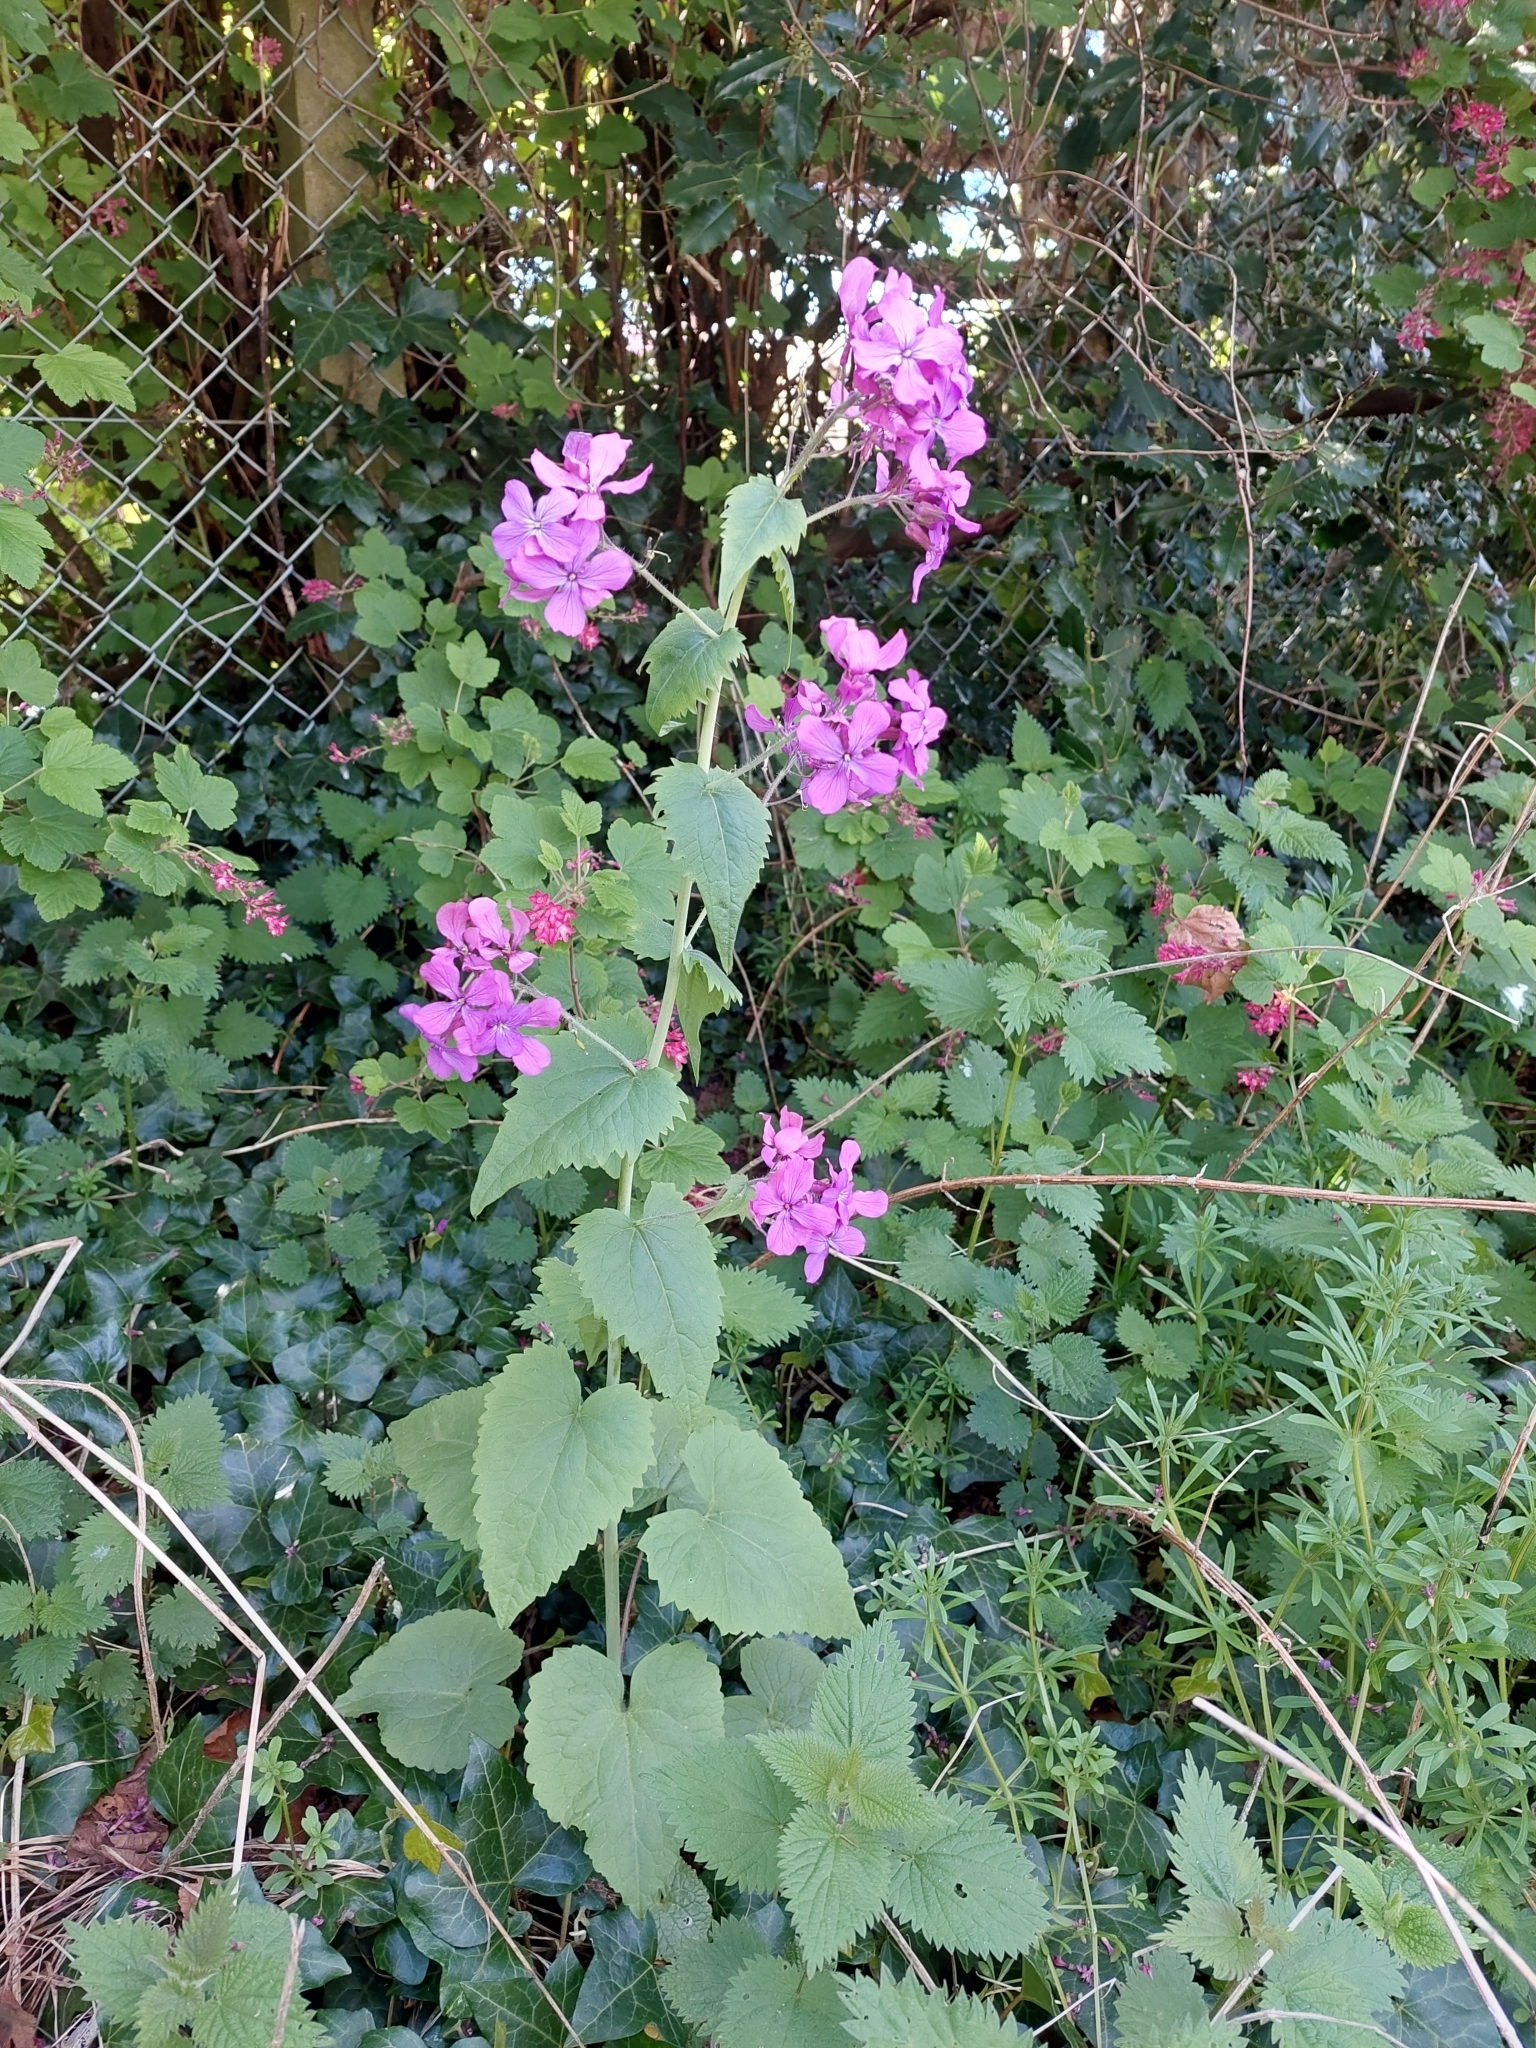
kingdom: Plantae
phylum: Tracheophyta
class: Magnoliopsida
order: Brassicales
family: Brassicaceae
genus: Lunaria
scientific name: Lunaria annua
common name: Honesty
